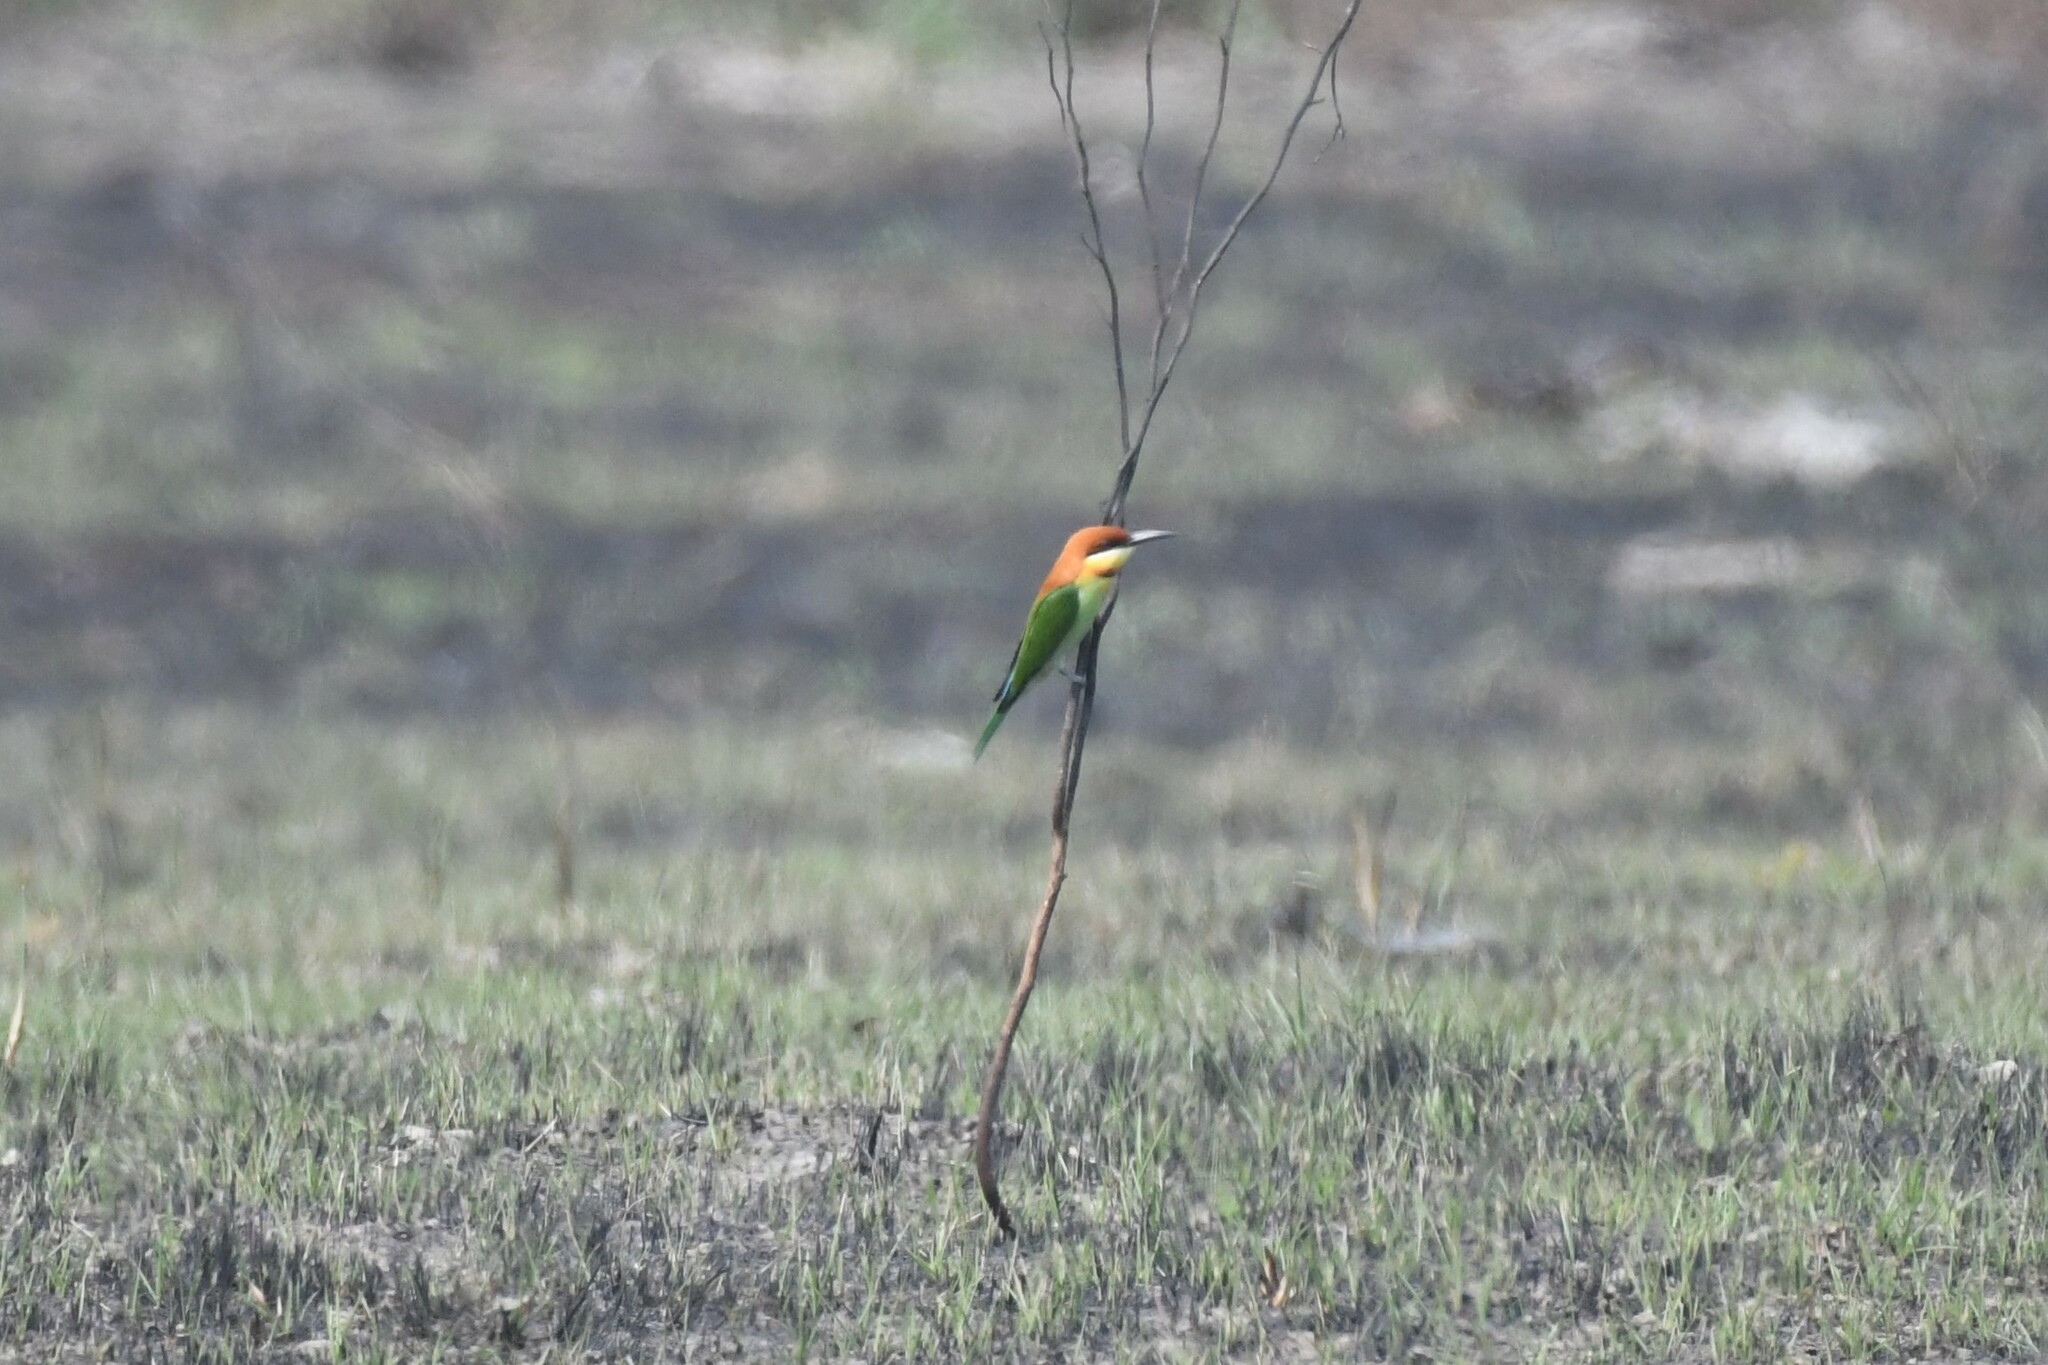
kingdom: Animalia
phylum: Chordata
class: Aves
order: Coraciiformes
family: Meropidae
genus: Merops
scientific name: Merops leschenaulti
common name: Chestnut-headed bee-eater
